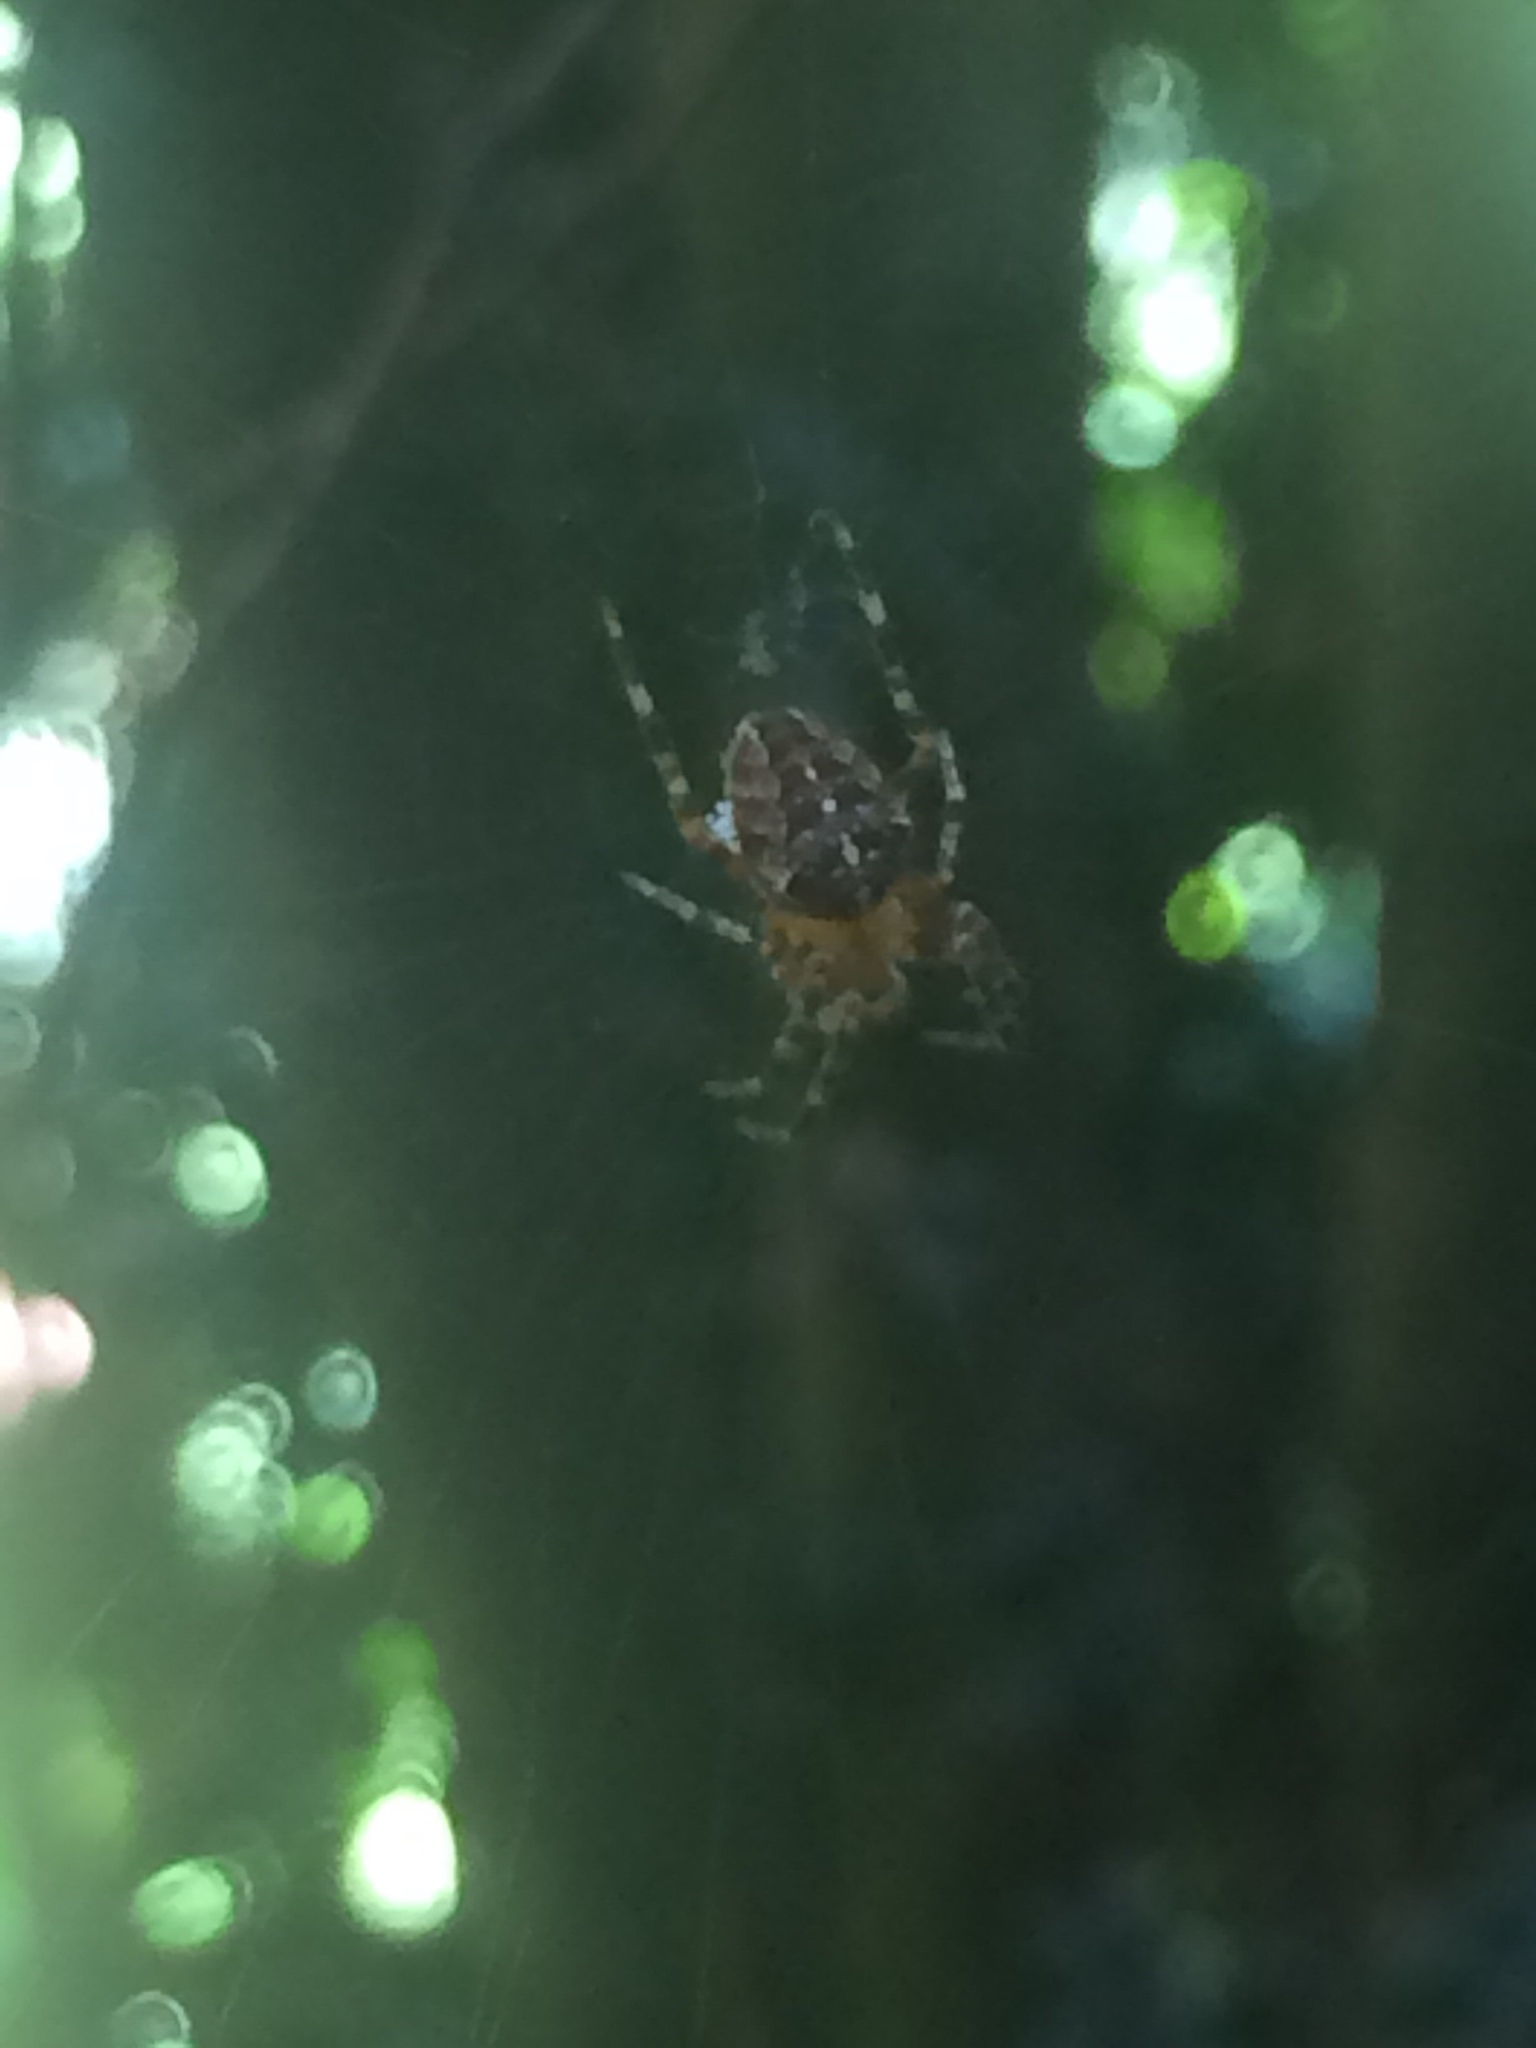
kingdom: Animalia
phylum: Arthropoda
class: Arachnida
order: Araneae
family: Araneidae
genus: Araneus
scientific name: Araneus diadematus
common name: Cross orbweaver
